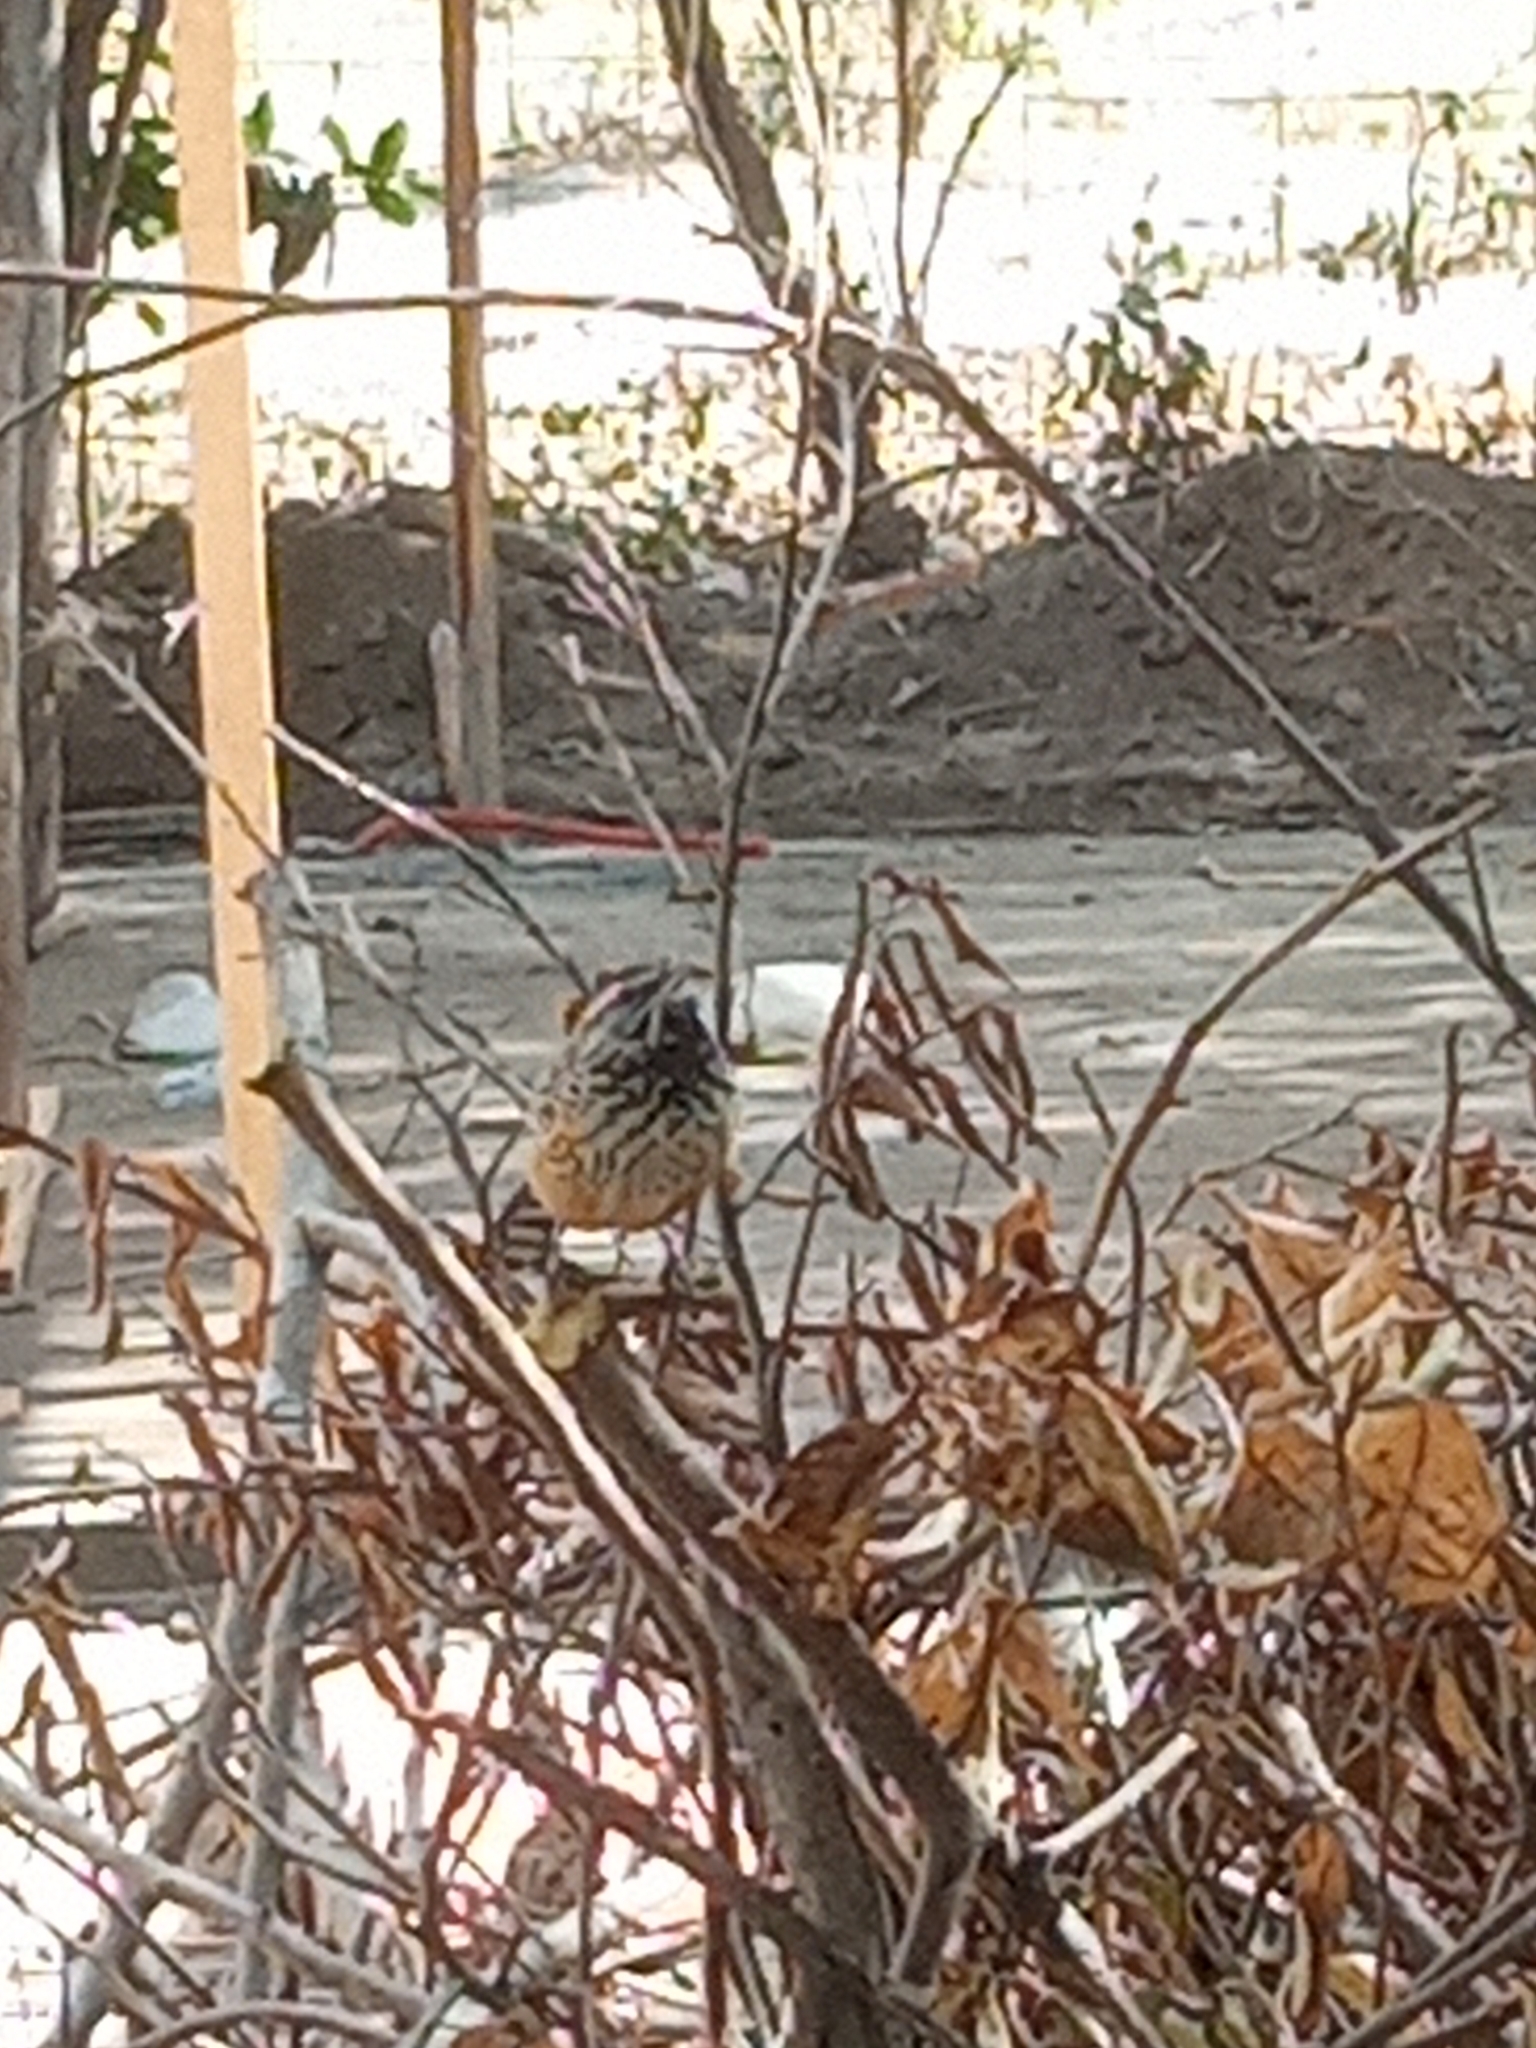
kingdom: Animalia
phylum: Chordata
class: Aves
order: Passeriformes
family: Troglodytidae
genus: Campylorhynchus
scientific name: Campylorhynchus brunneicapillus
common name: Cactus wren
